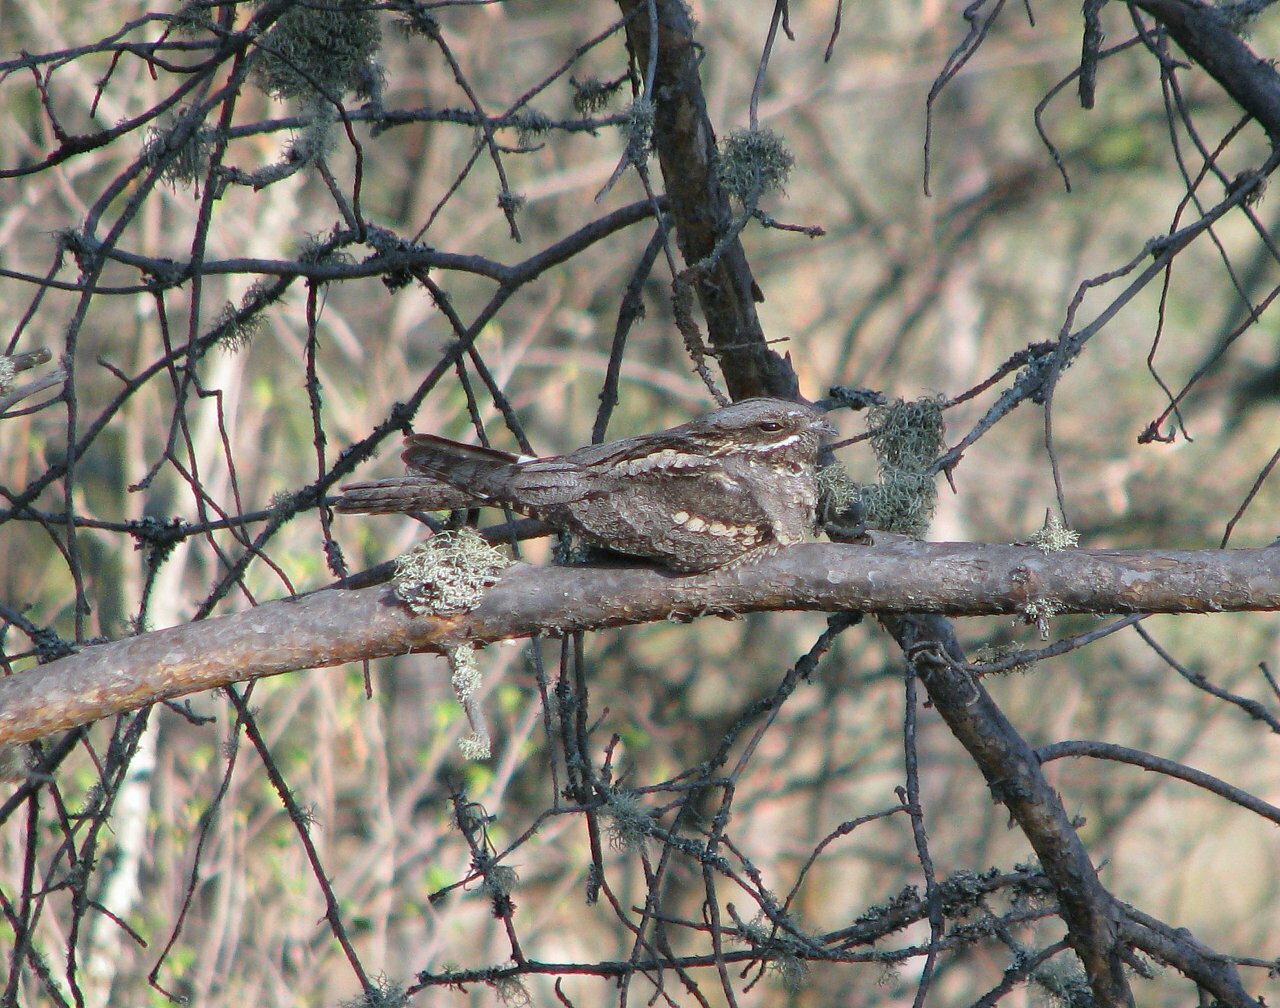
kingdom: Animalia
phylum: Chordata
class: Aves
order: Caprimulgiformes
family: Caprimulgidae
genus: Caprimulgus
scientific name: Caprimulgus europaeus
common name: European nightjar
